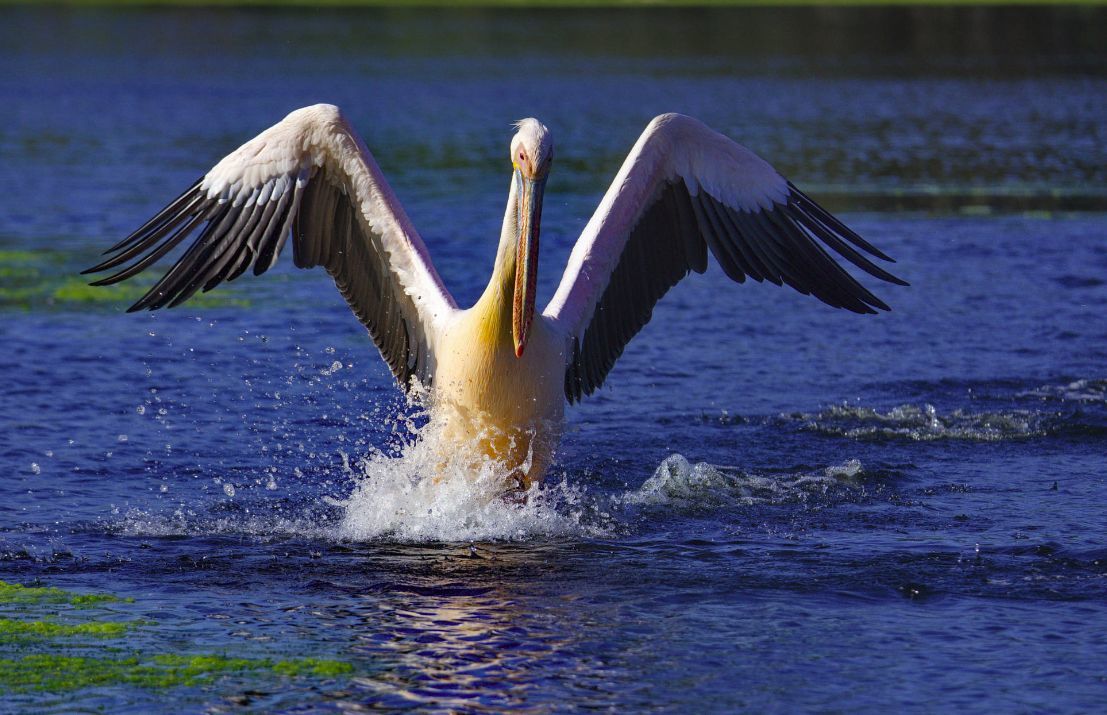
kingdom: Animalia
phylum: Chordata
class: Aves
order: Pelecaniformes
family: Pelecanidae
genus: Pelecanus
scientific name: Pelecanus onocrotalus
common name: Great white pelican
